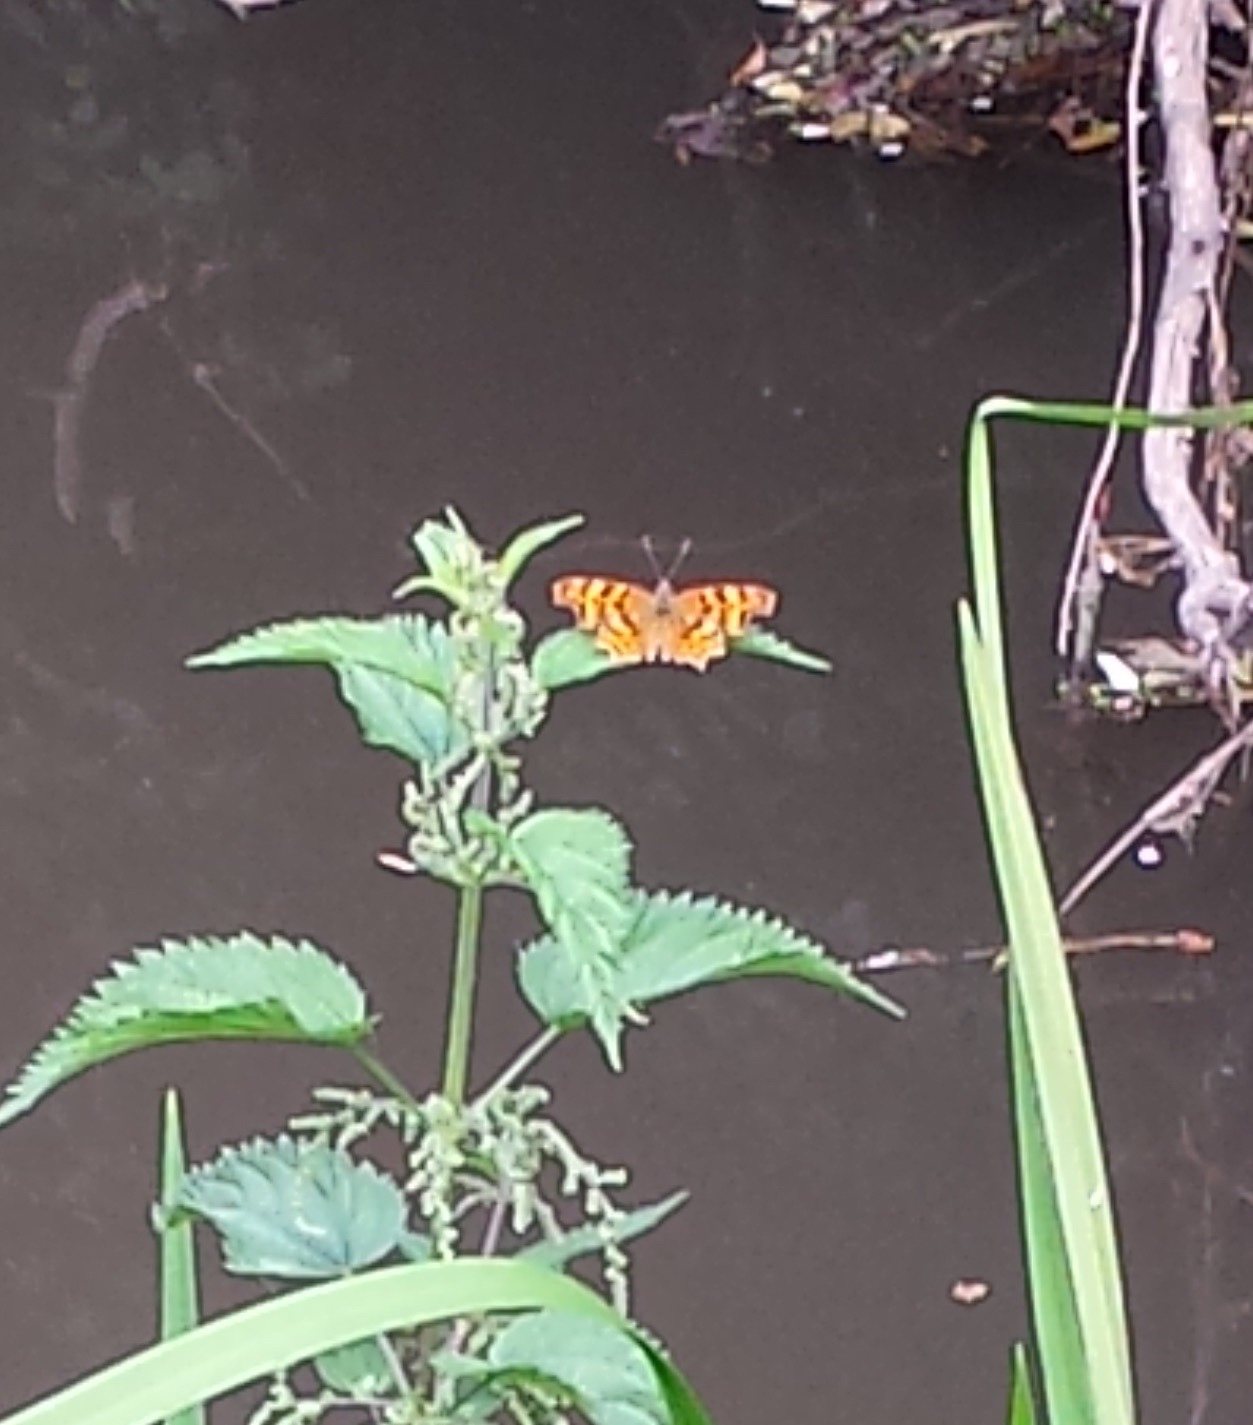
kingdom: Animalia
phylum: Arthropoda
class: Insecta
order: Lepidoptera
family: Nymphalidae
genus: Polygonia
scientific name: Polygonia c-album
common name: Comma
